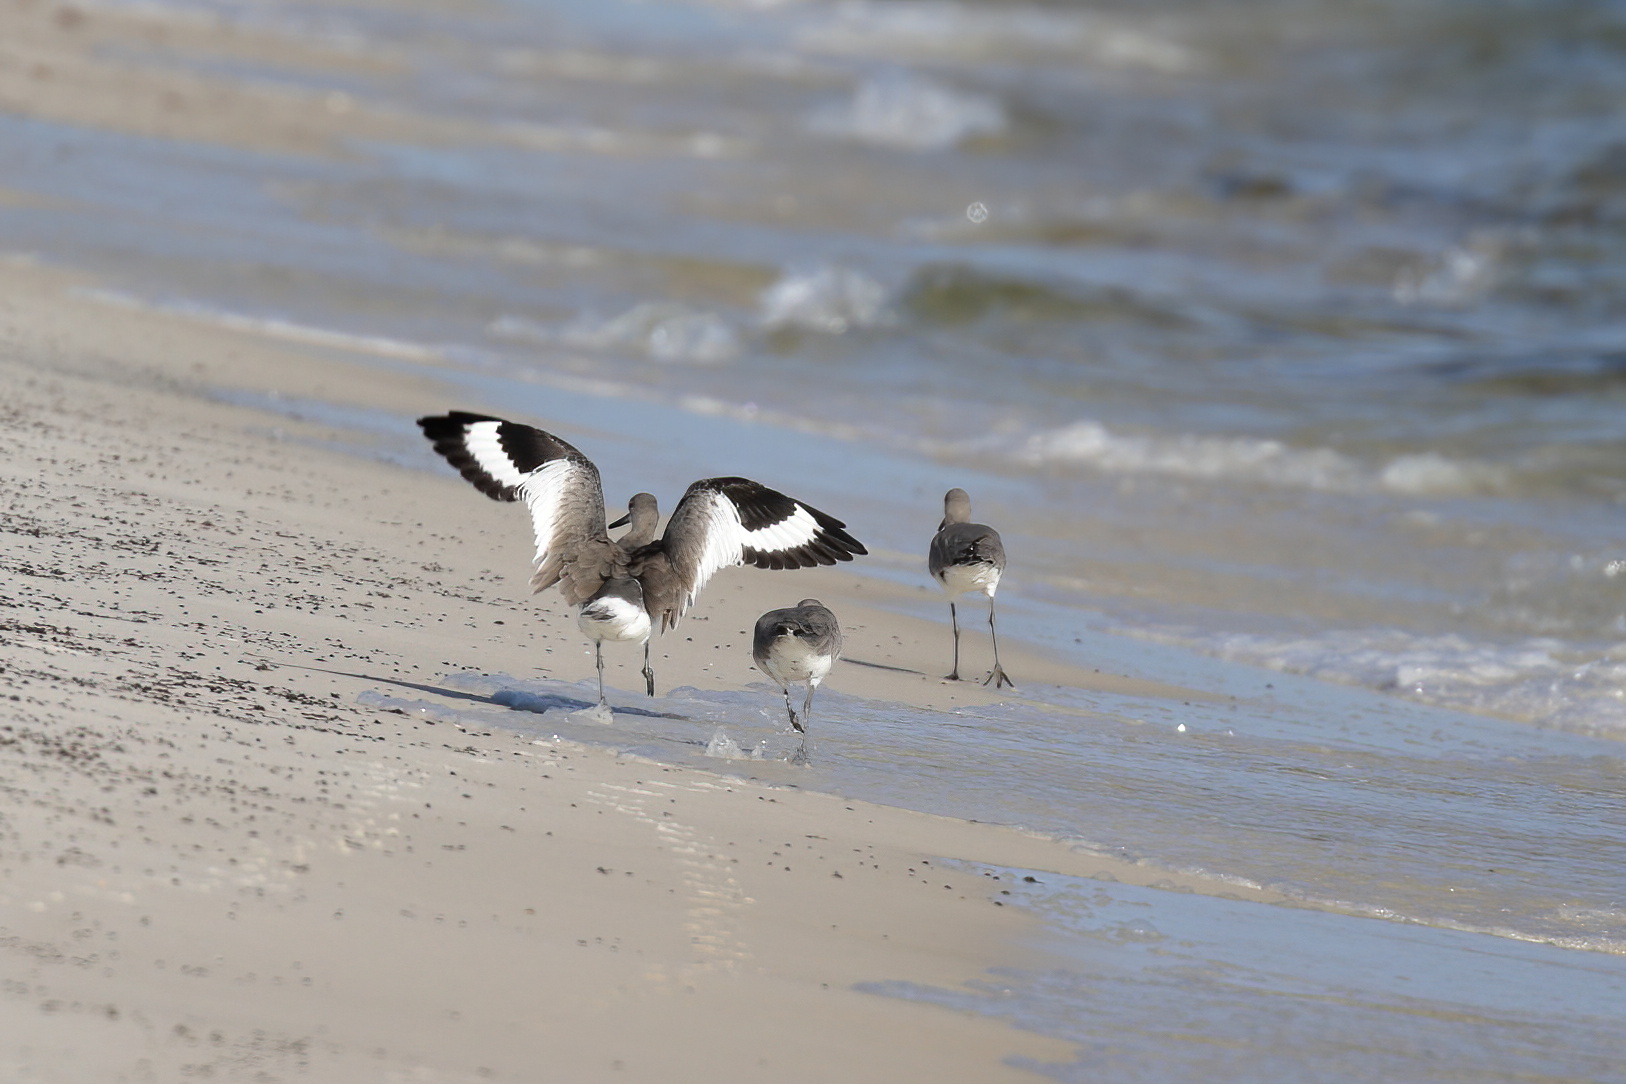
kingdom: Animalia
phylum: Chordata
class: Aves
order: Charadriiformes
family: Scolopacidae
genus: Tringa
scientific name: Tringa semipalmata
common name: Willet
